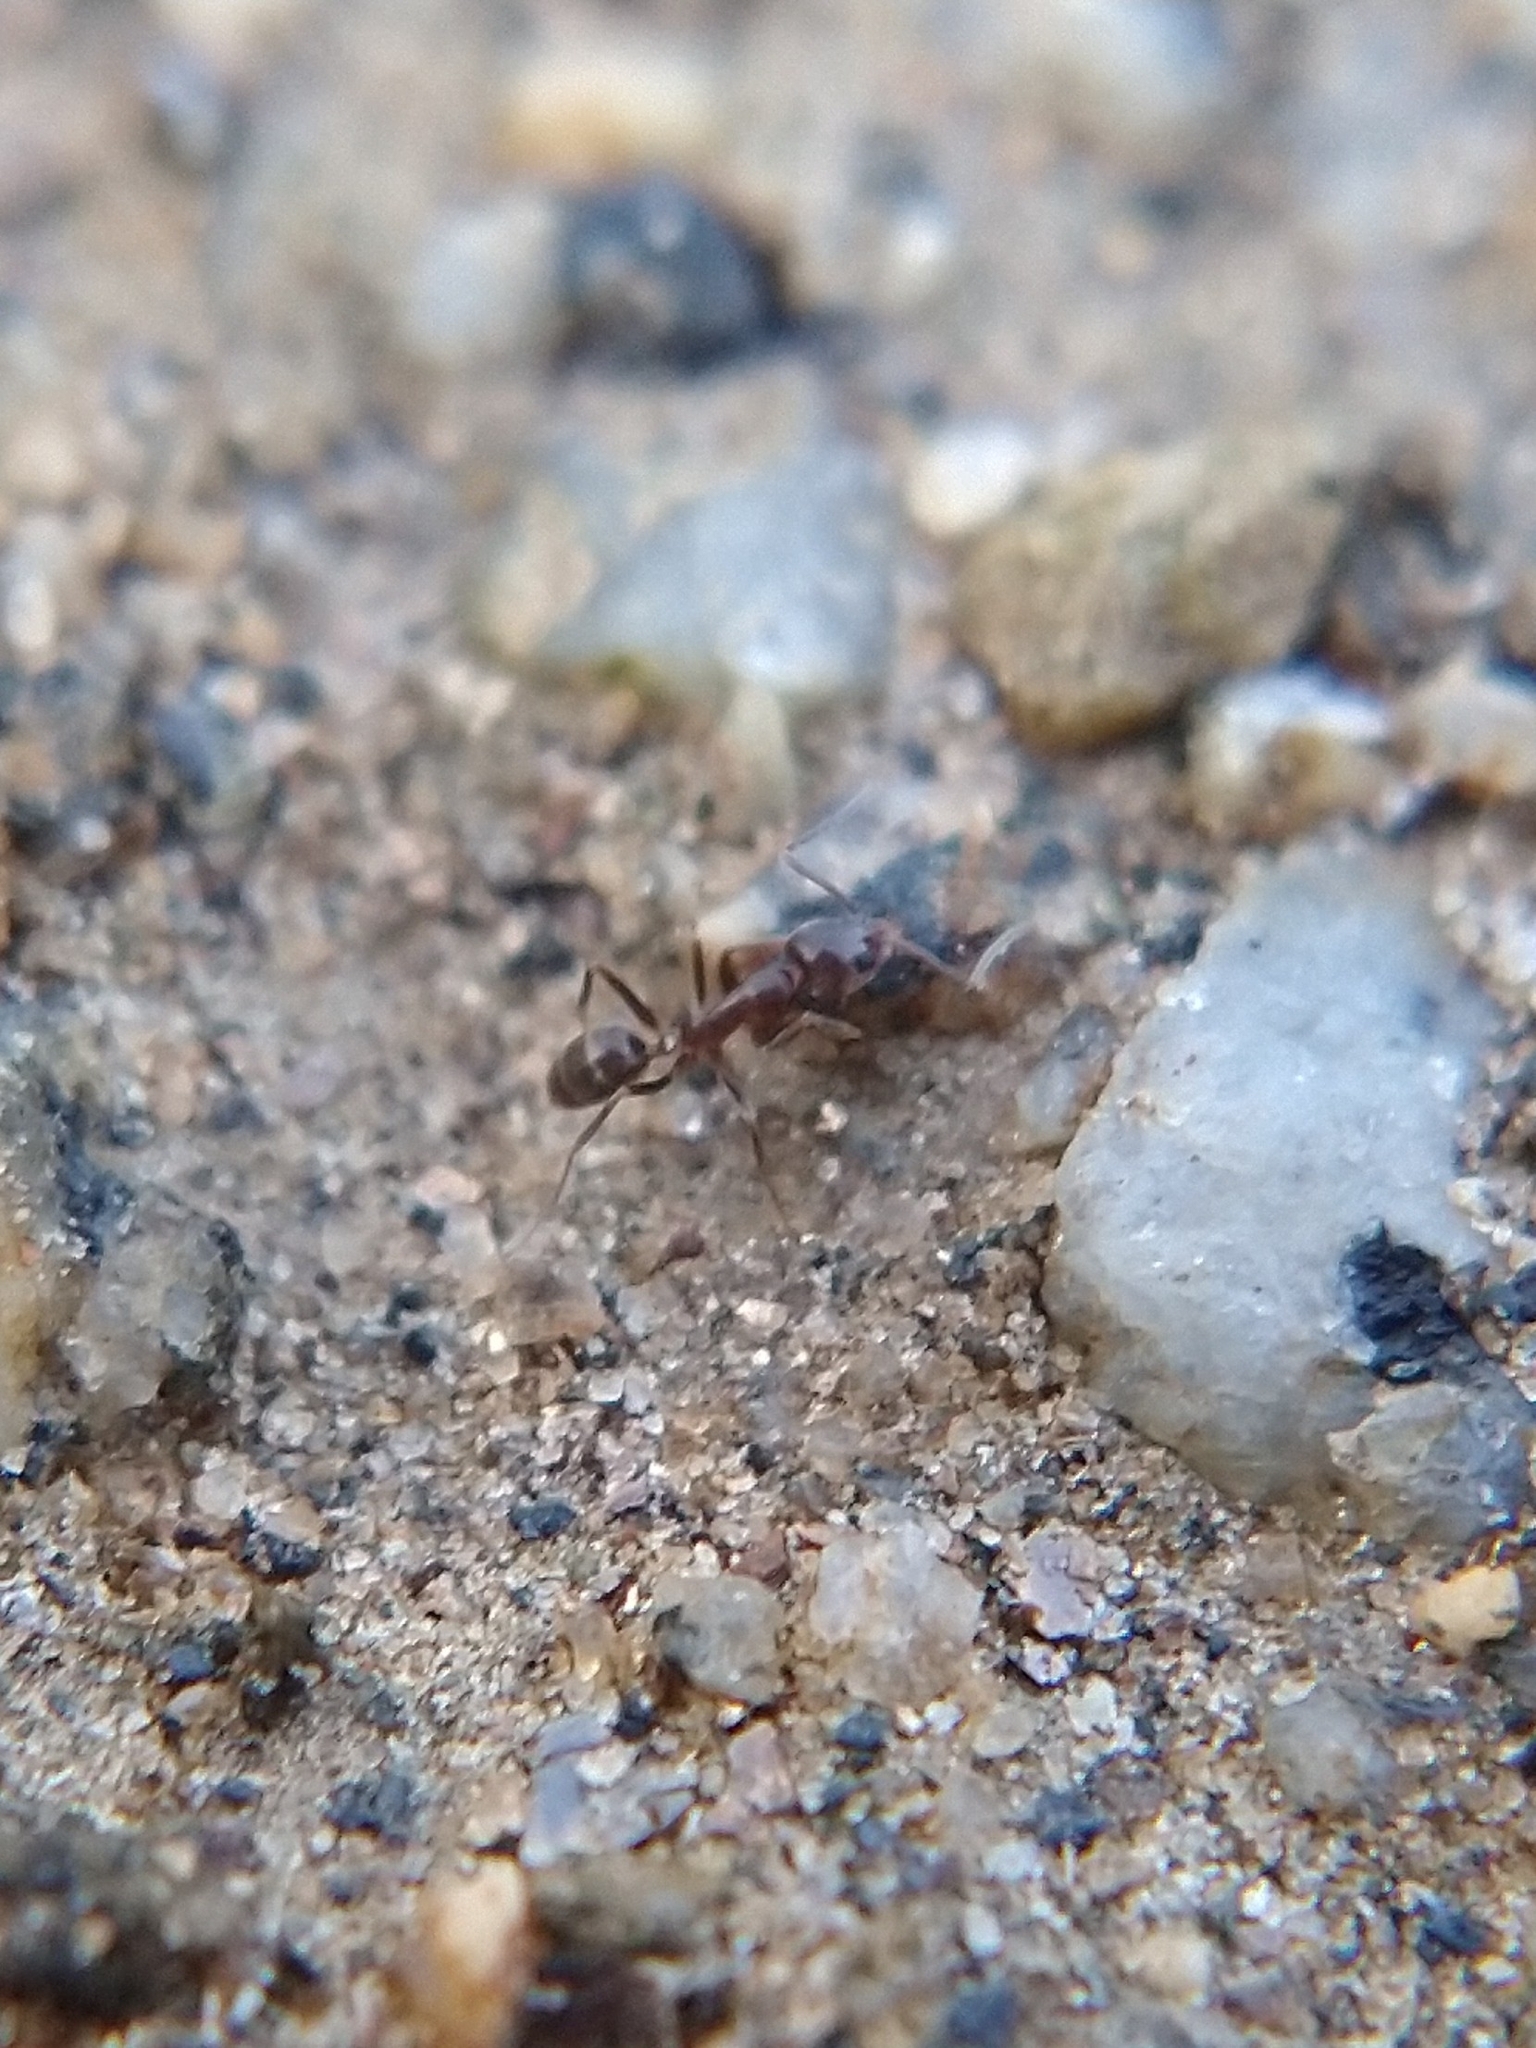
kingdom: Animalia
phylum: Arthropoda
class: Insecta
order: Hymenoptera
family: Formicidae
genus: Linepithema
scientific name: Linepithema humile
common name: Argentine ant
